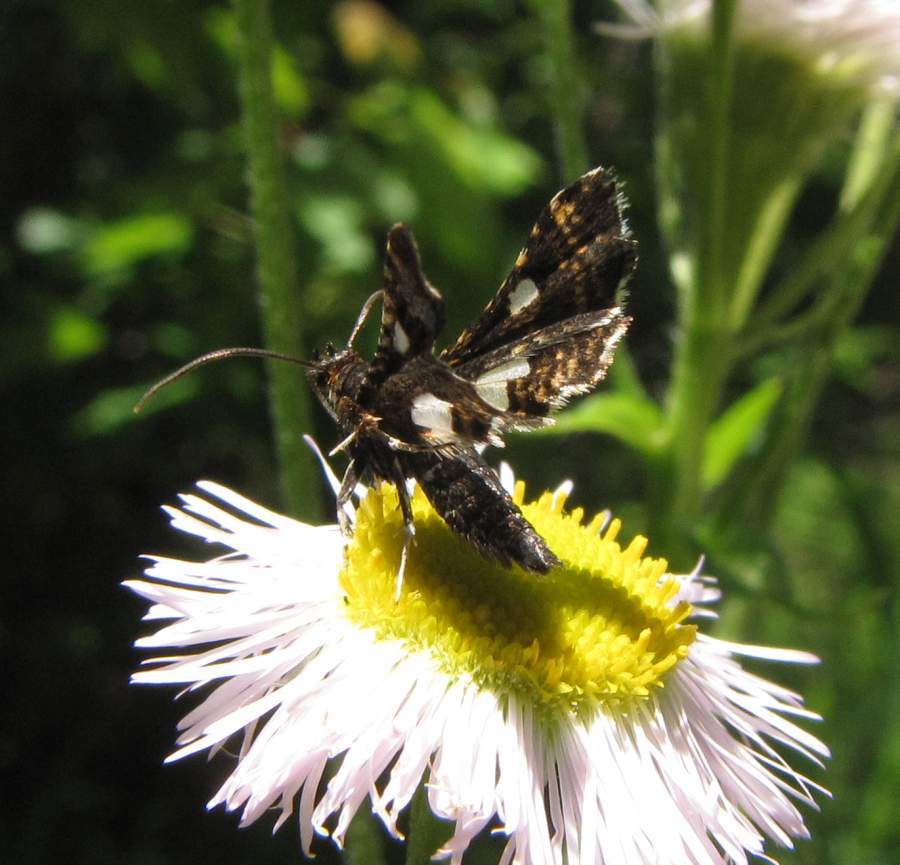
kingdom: Animalia
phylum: Arthropoda
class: Insecta
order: Lepidoptera
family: Thyrididae
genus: Thyris
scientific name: Thyris maculata
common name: Spotted thyris moth
